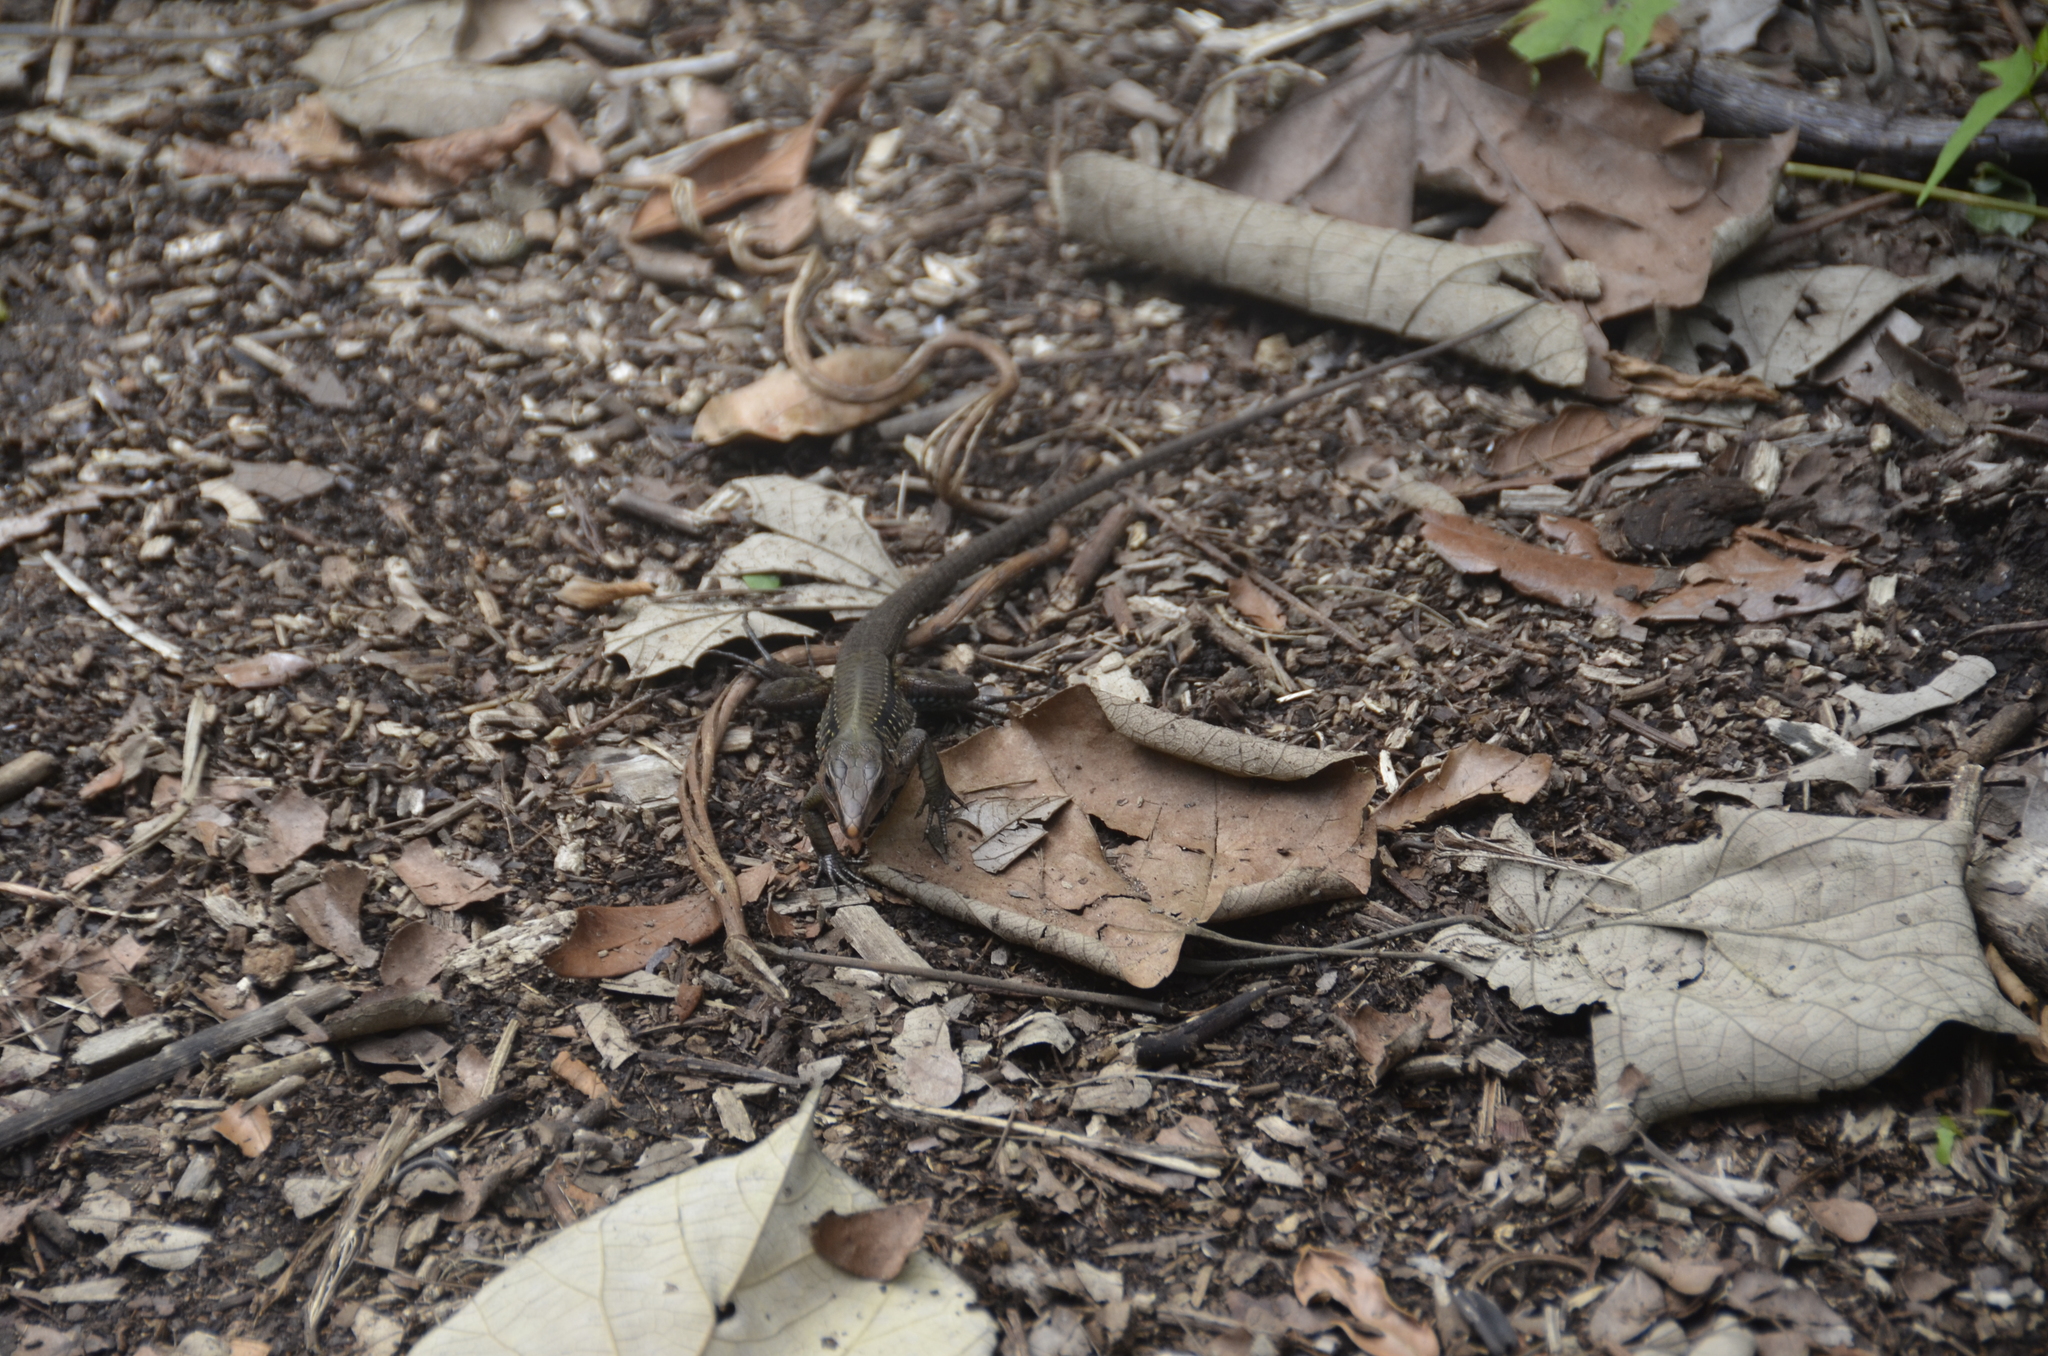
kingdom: Animalia
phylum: Chordata
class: Squamata
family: Teiidae
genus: Holcosus
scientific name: Holcosus festivus
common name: Middle american ameiva
